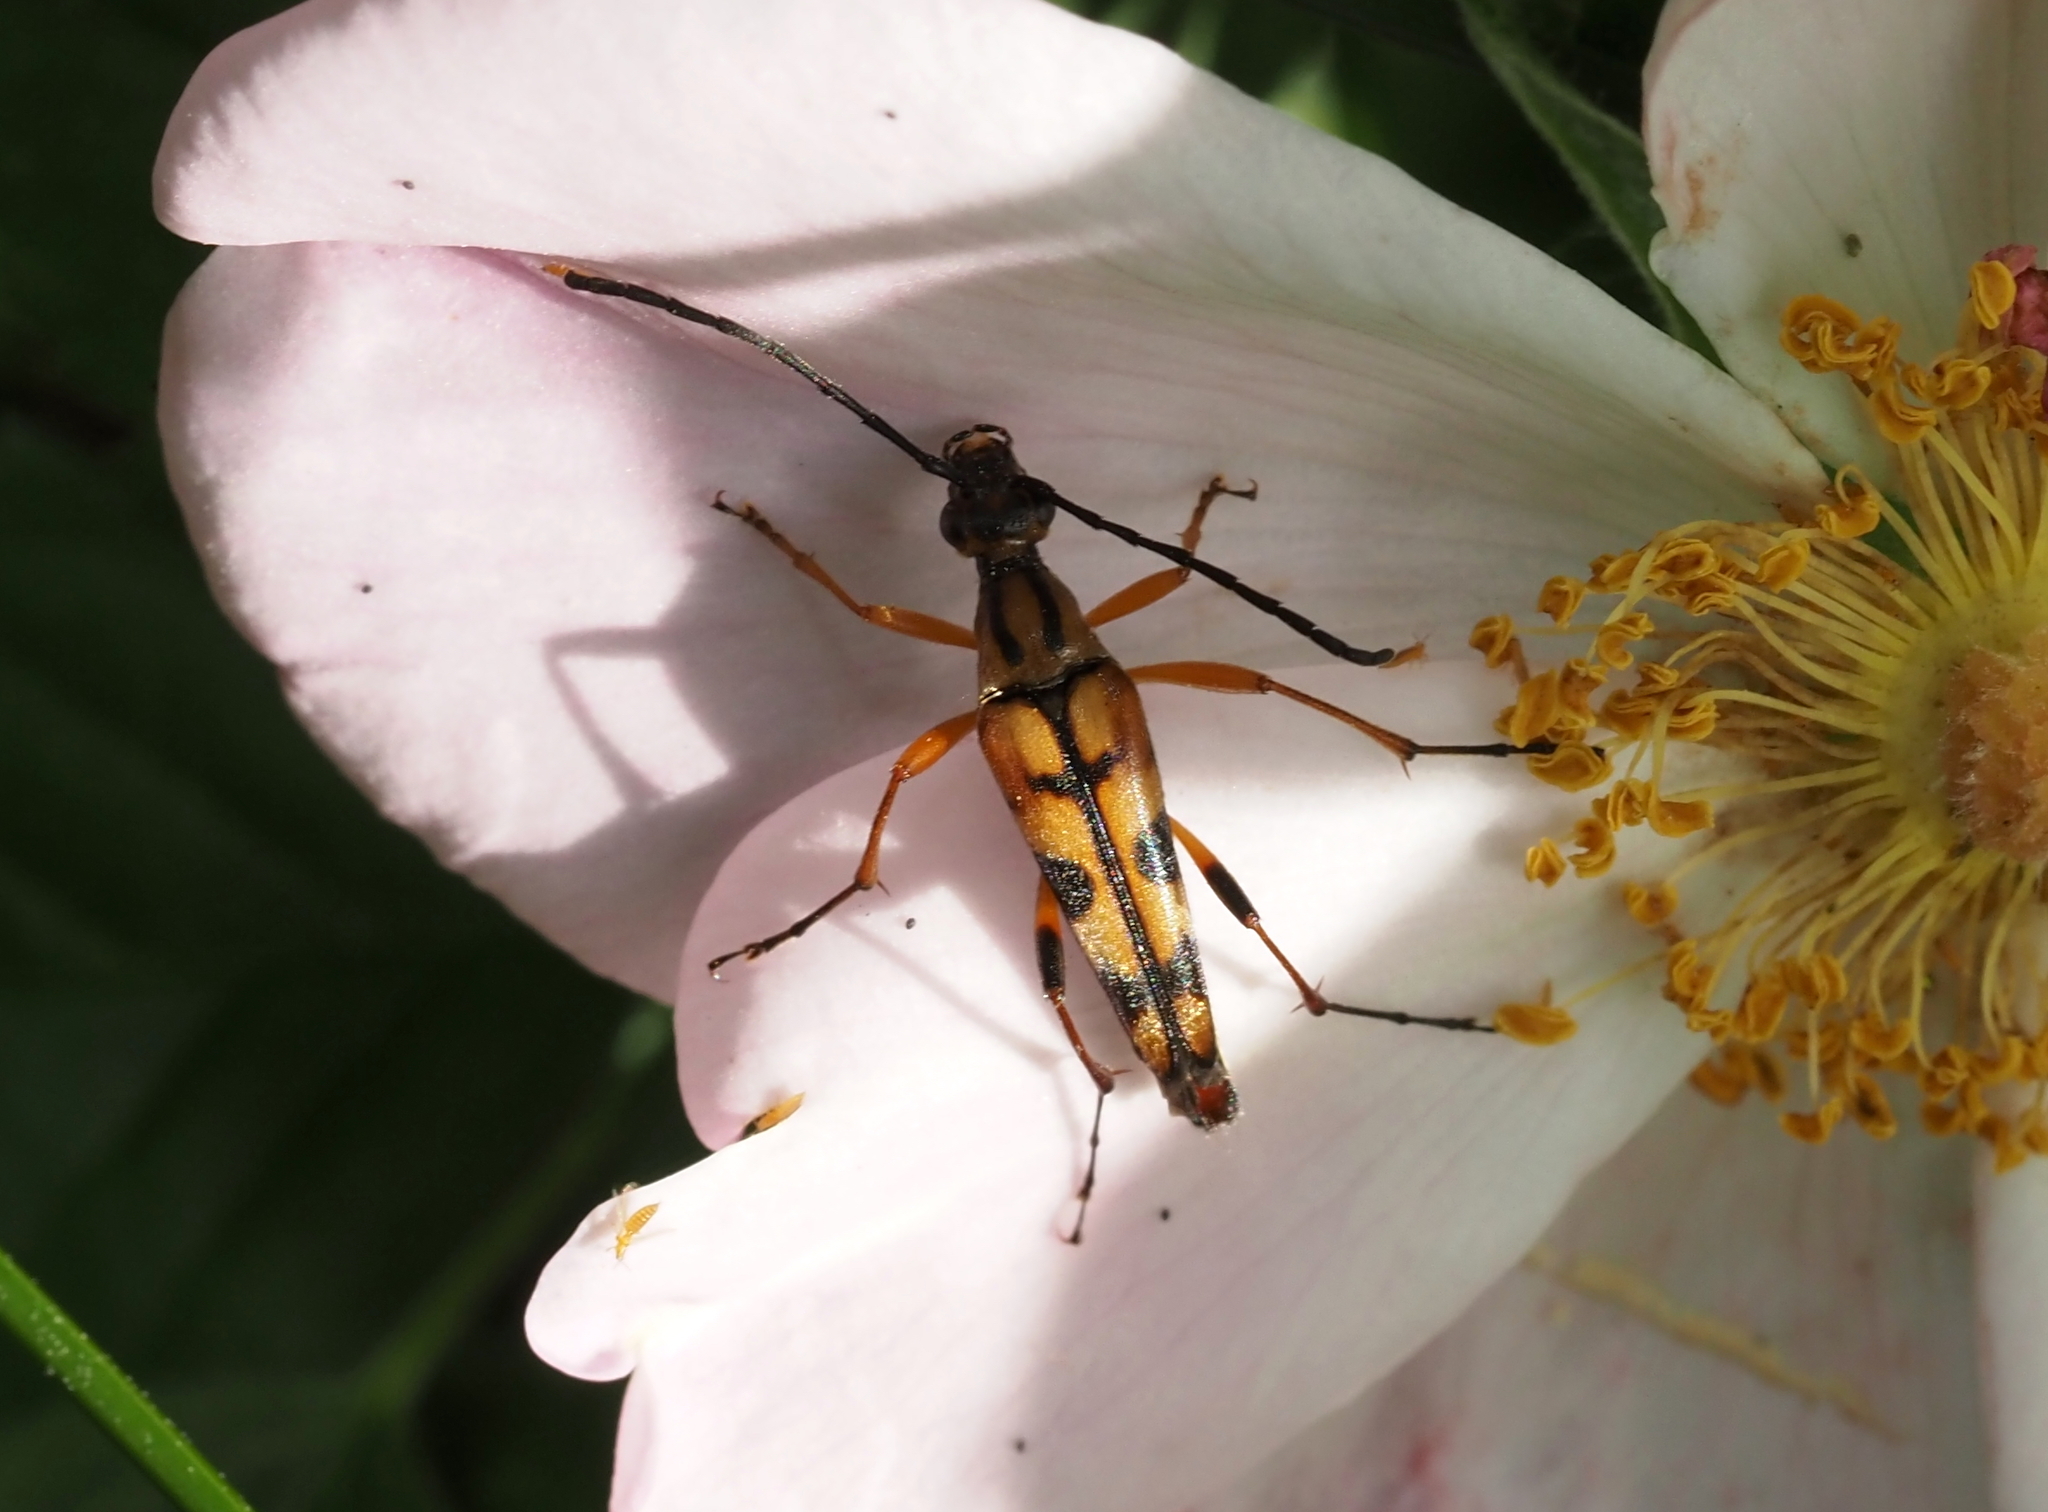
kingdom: Animalia
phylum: Arthropoda
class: Insecta
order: Coleoptera
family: Cerambycidae
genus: Strangalia
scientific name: Strangalia famelica
